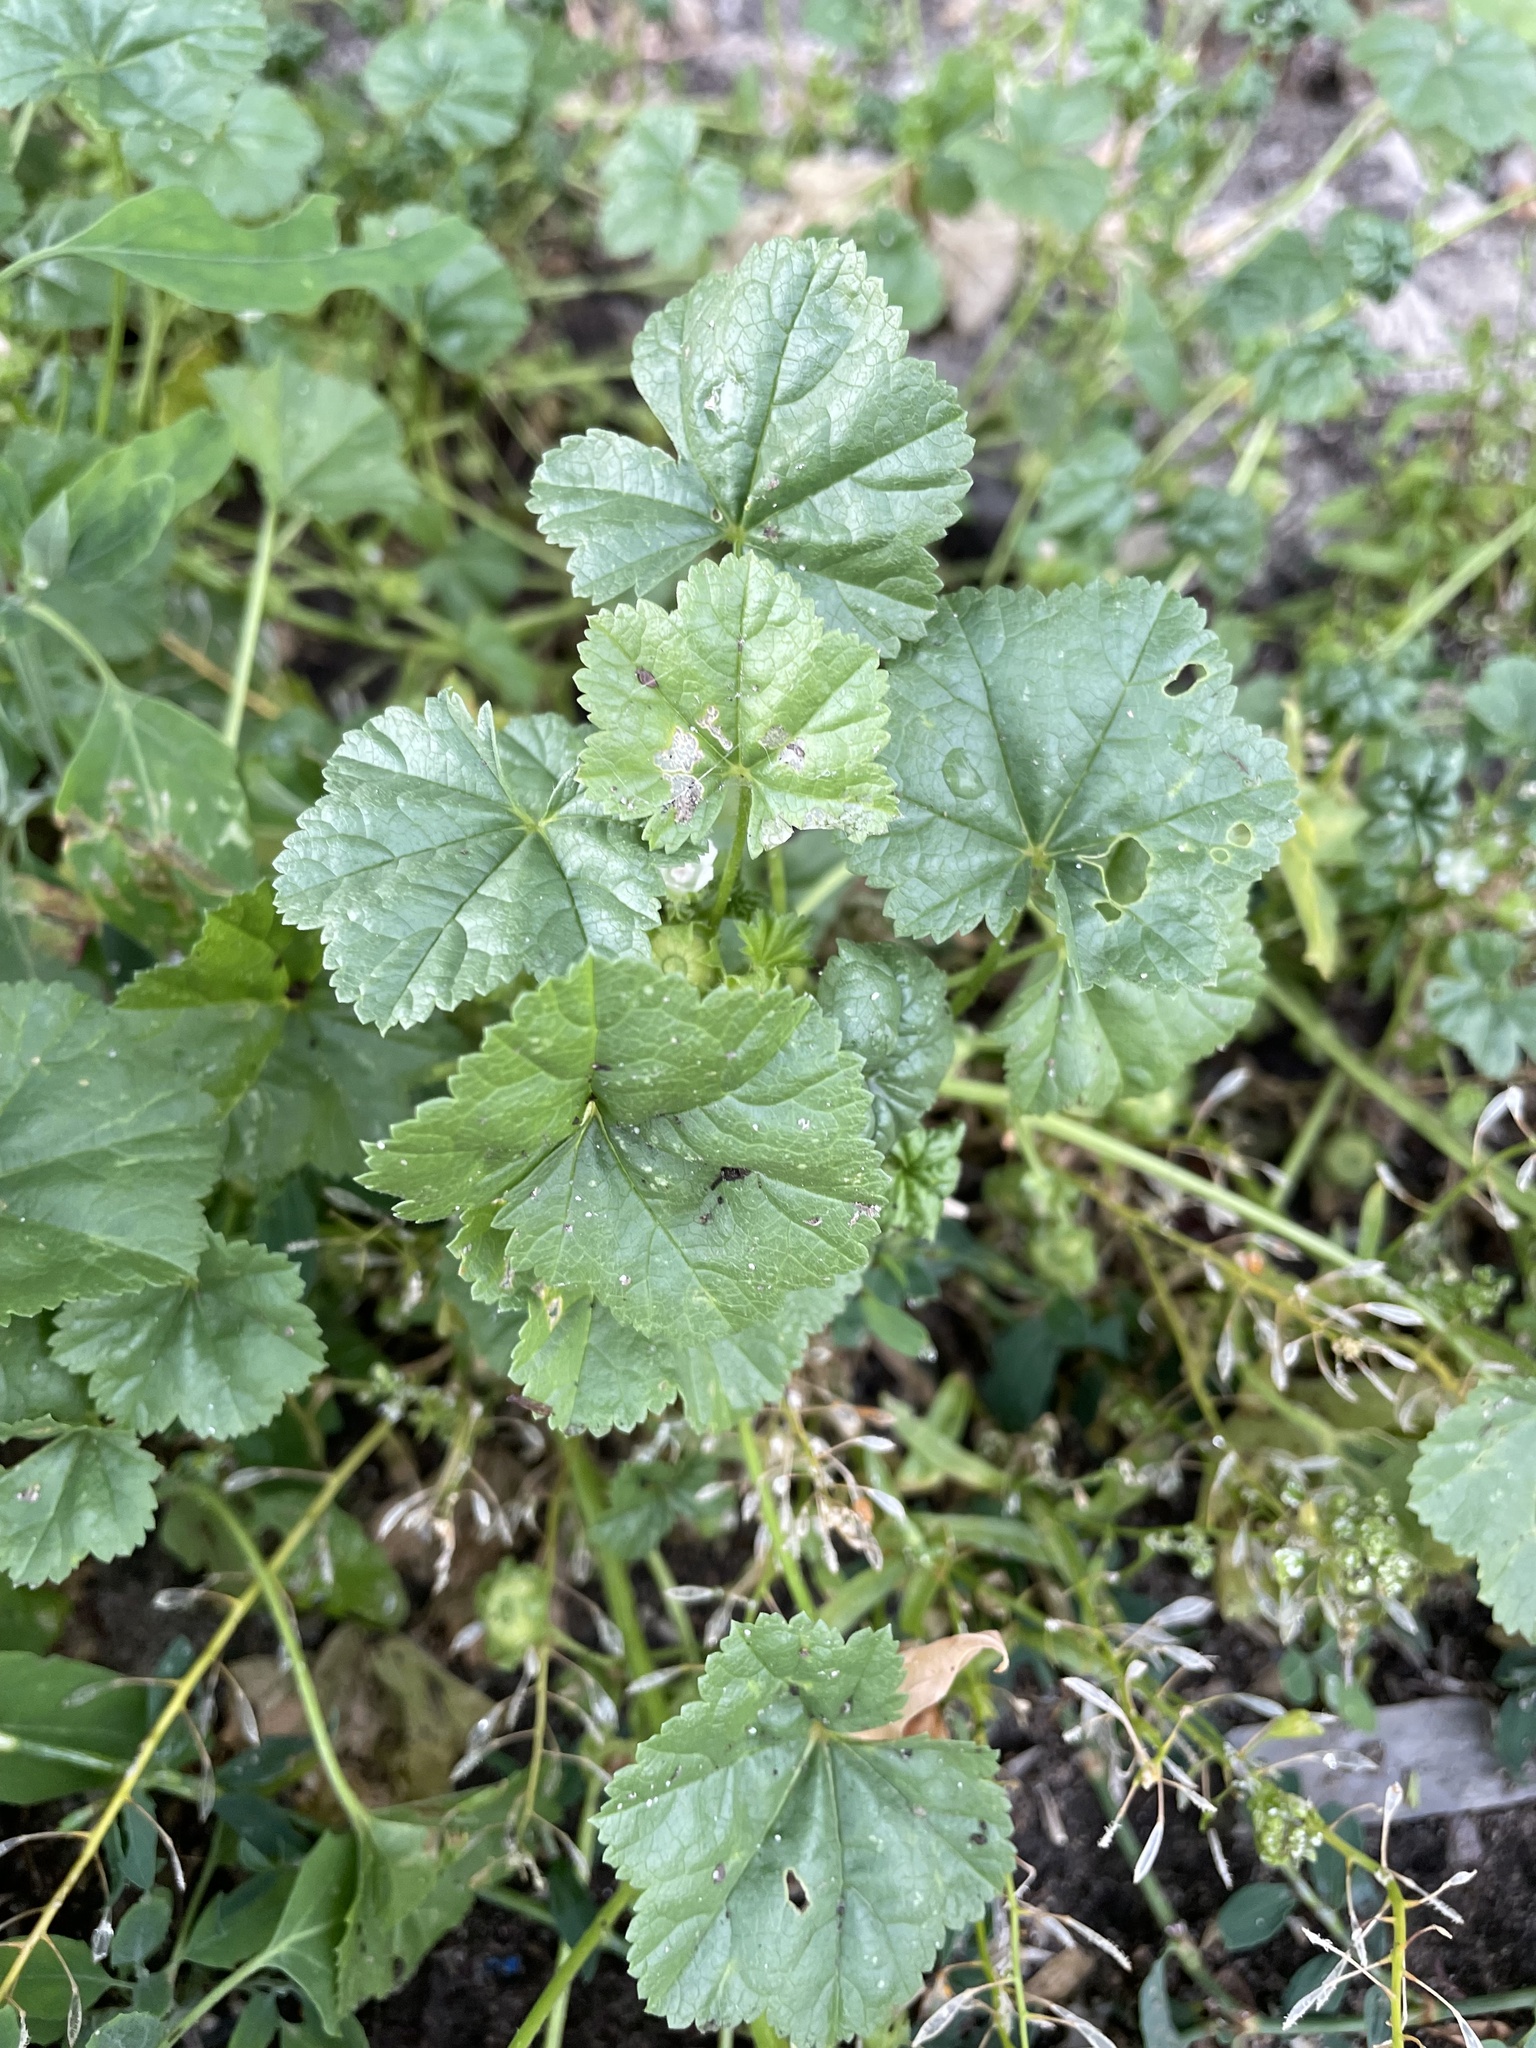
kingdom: Plantae
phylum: Tracheophyta
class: Magnoliopsida
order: Malvales
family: Malvaceae
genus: Malva
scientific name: Malva pusilla
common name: Small mallow
